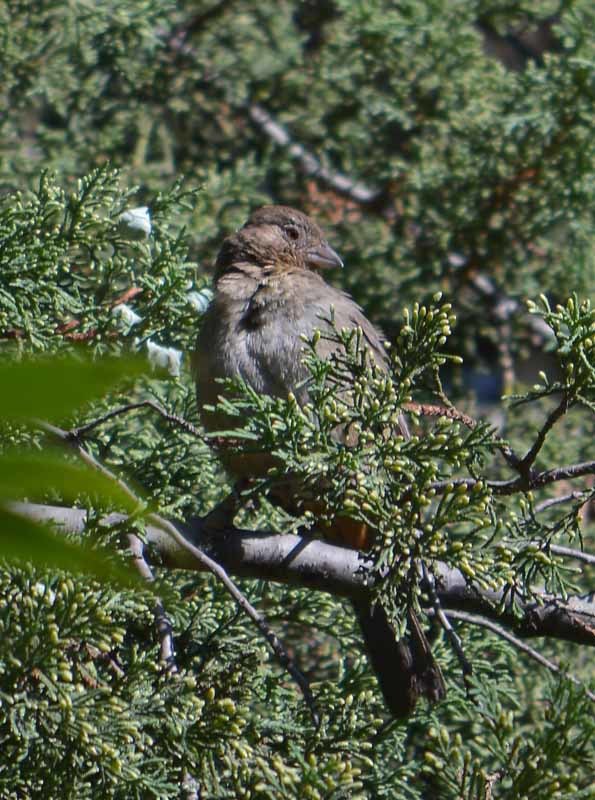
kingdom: Animalia
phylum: Chordata
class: Aves
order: Passeriformes
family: Passerellidae
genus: Melozone
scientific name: Melozone fusca
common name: Canyon towhee
